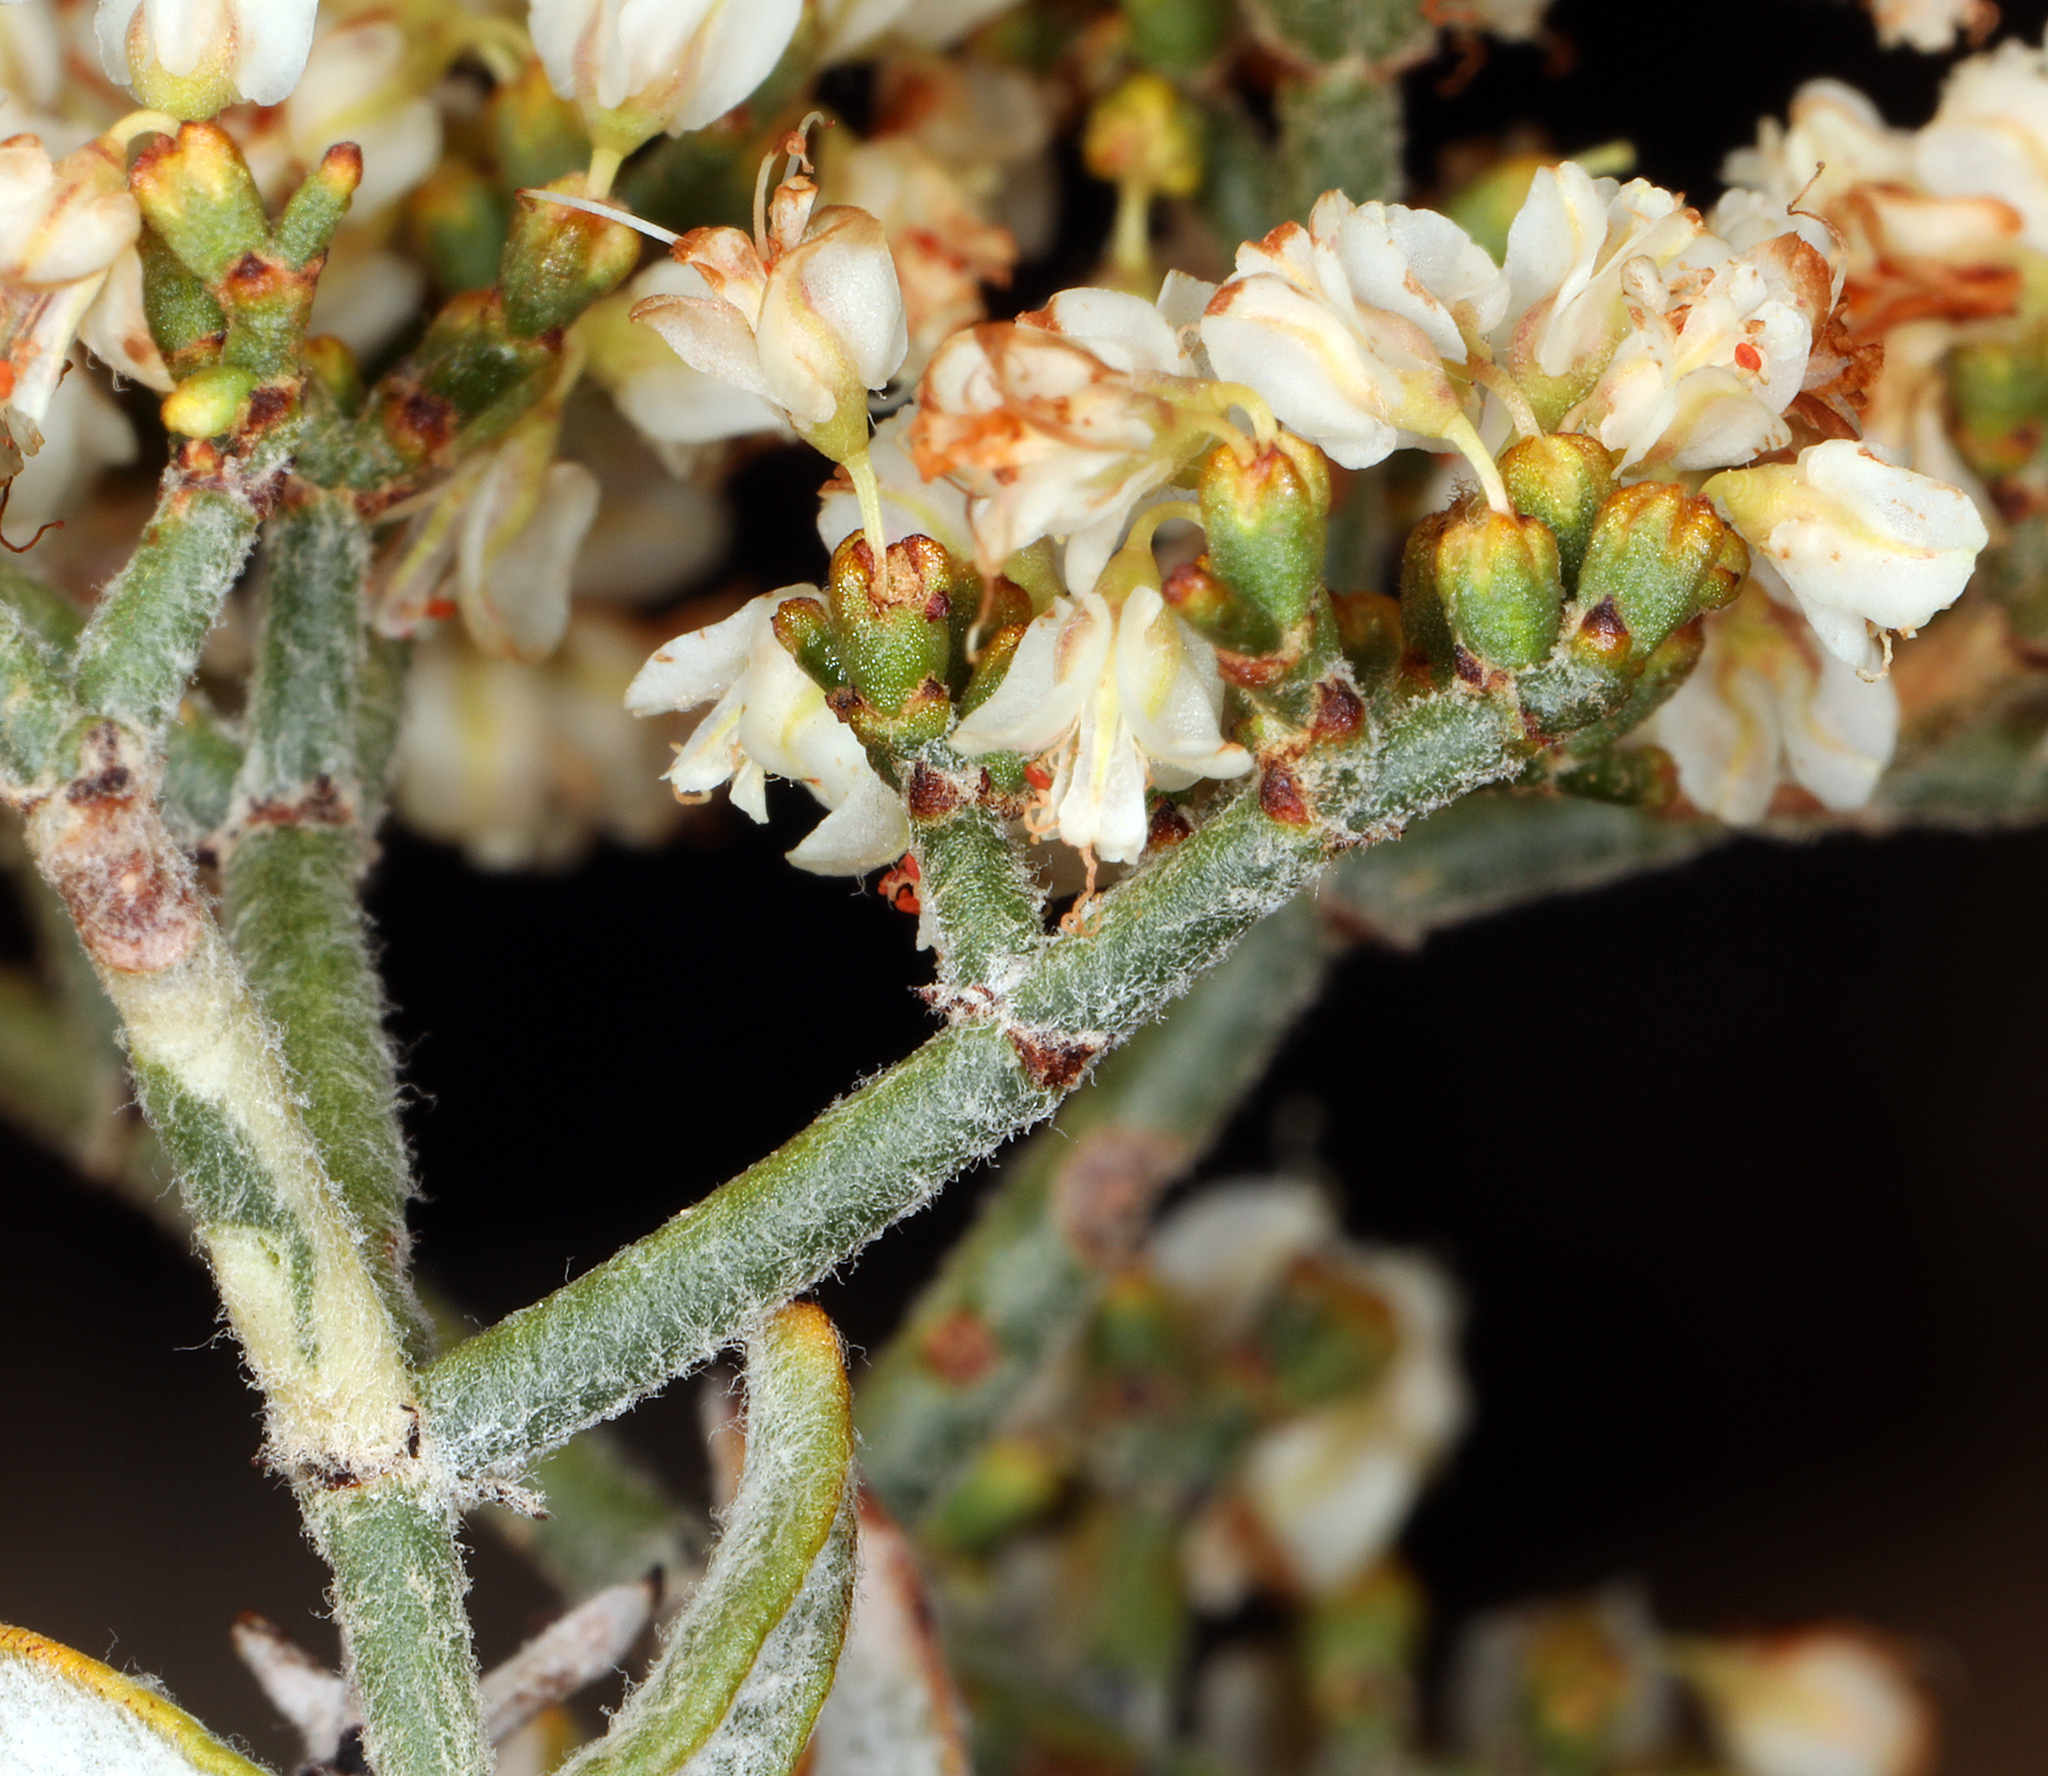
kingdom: Plantae
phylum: Tracheophyta
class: Magnoliopsida
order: Caryophyllales
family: Polygonaceae
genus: Eriogonum
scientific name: Eriogonum heermannii
